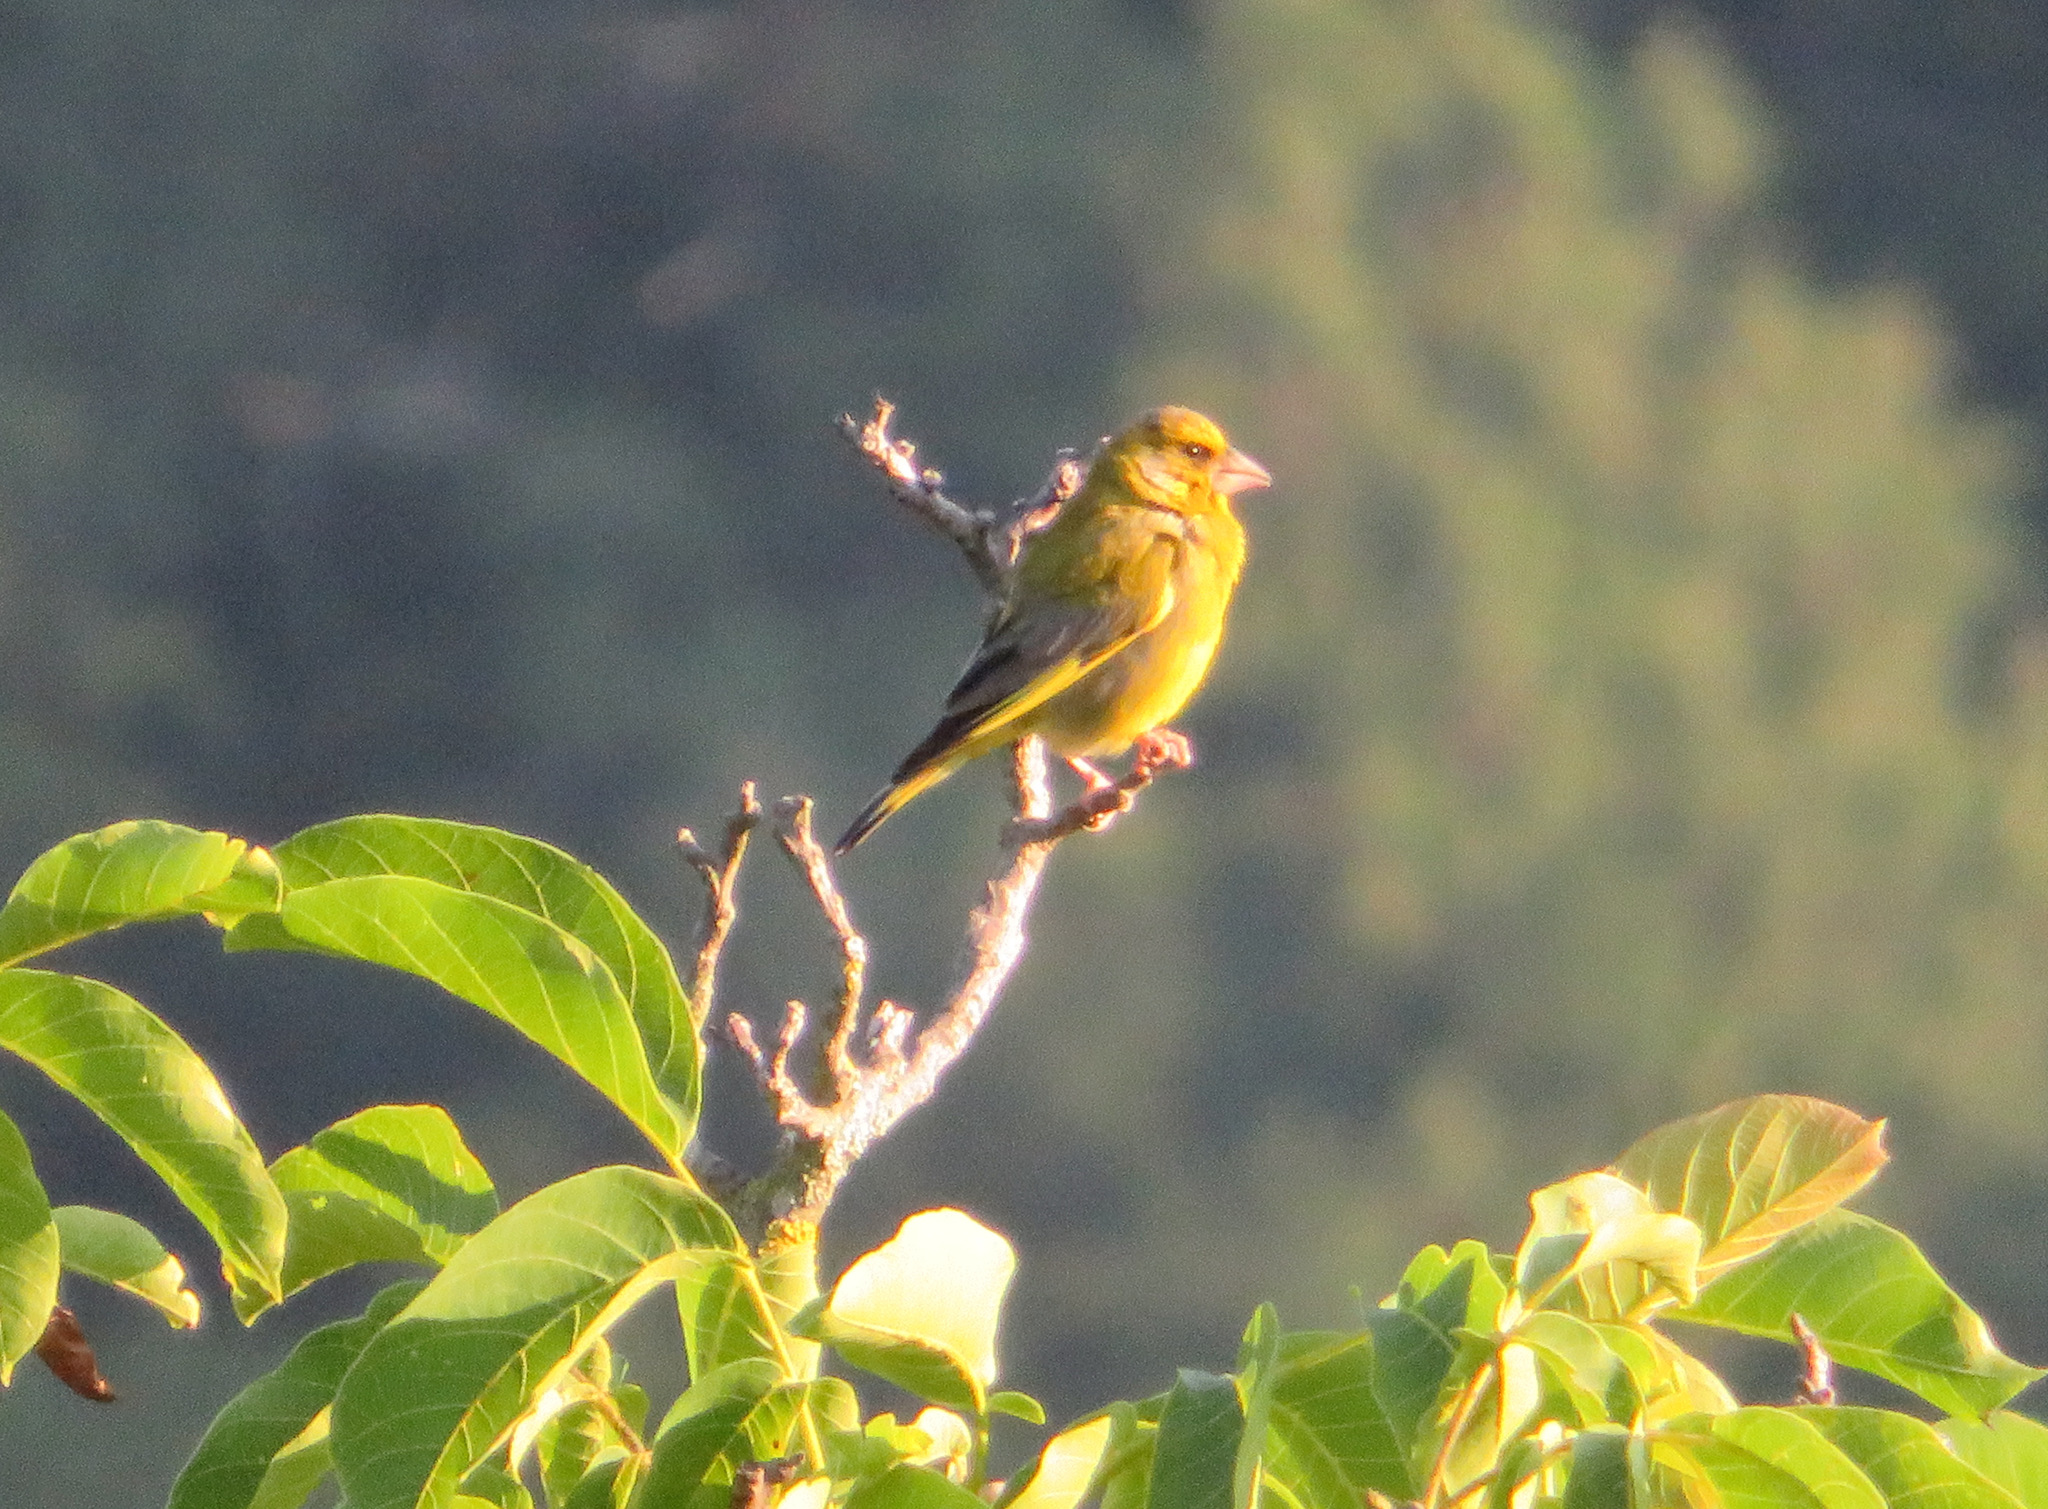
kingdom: Plantae
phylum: Tracheophyta
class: Liliopsida
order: Poales
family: Poaceae
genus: Chloris
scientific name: Chloris chloris
